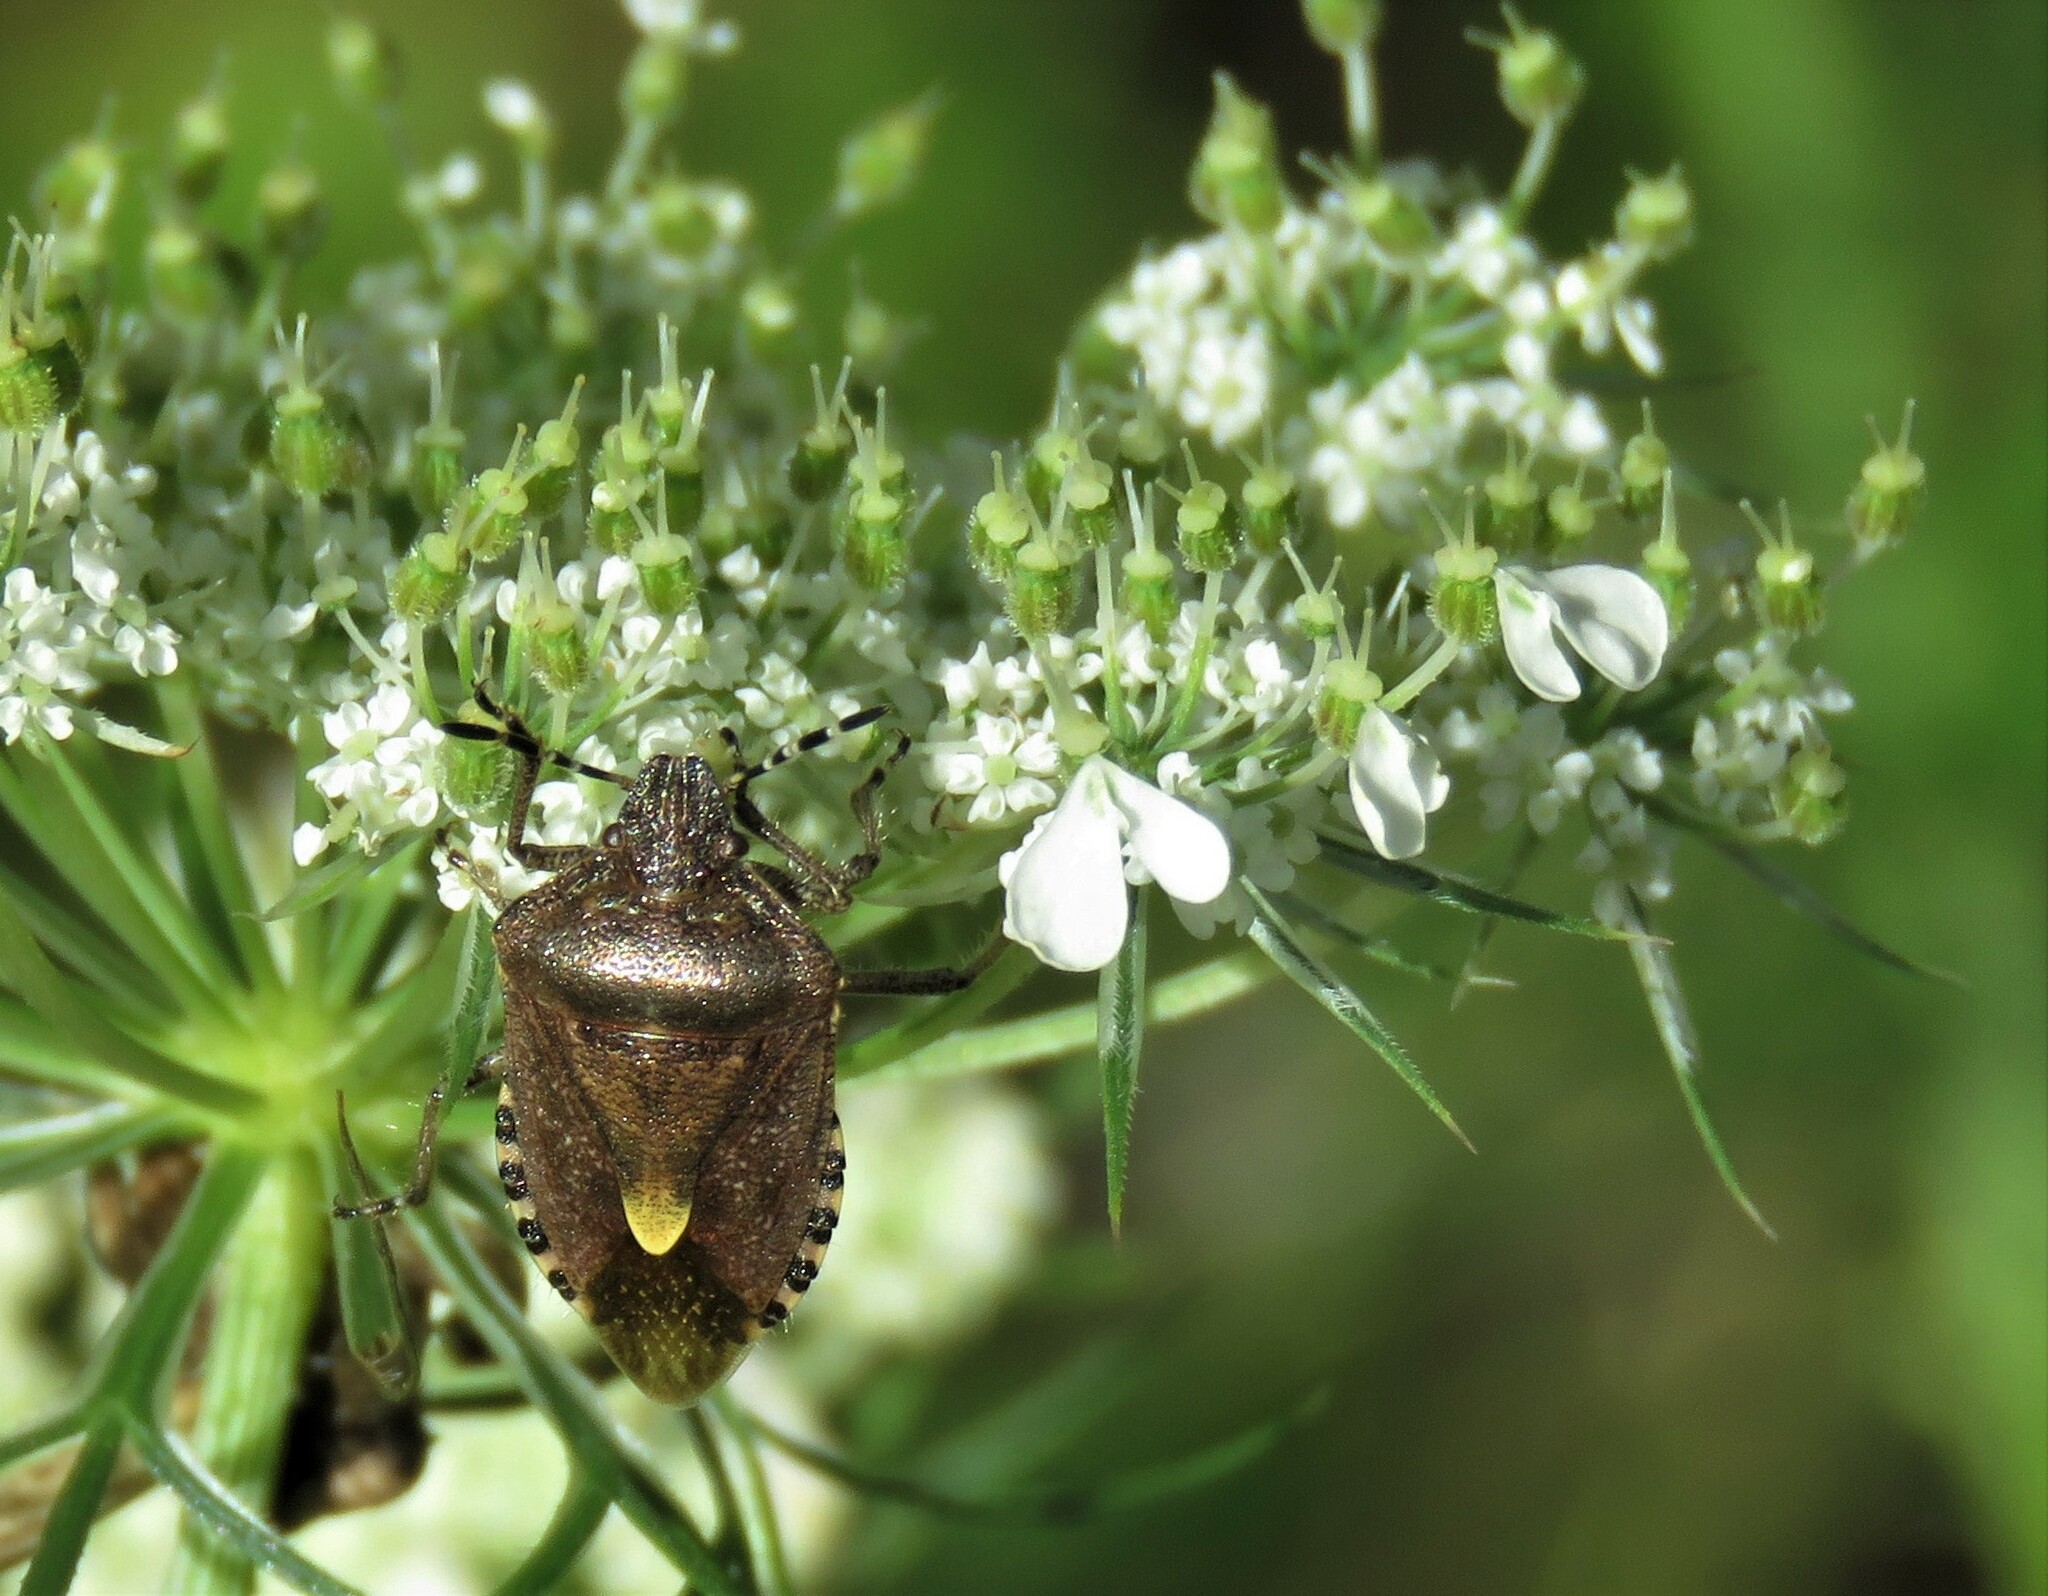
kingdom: Animalia
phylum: Arthropoda
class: Insecta
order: Hemiptera
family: Pentatomidae
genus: Dolycoris
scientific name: Dolycoris baccarum
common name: Sloe bug
